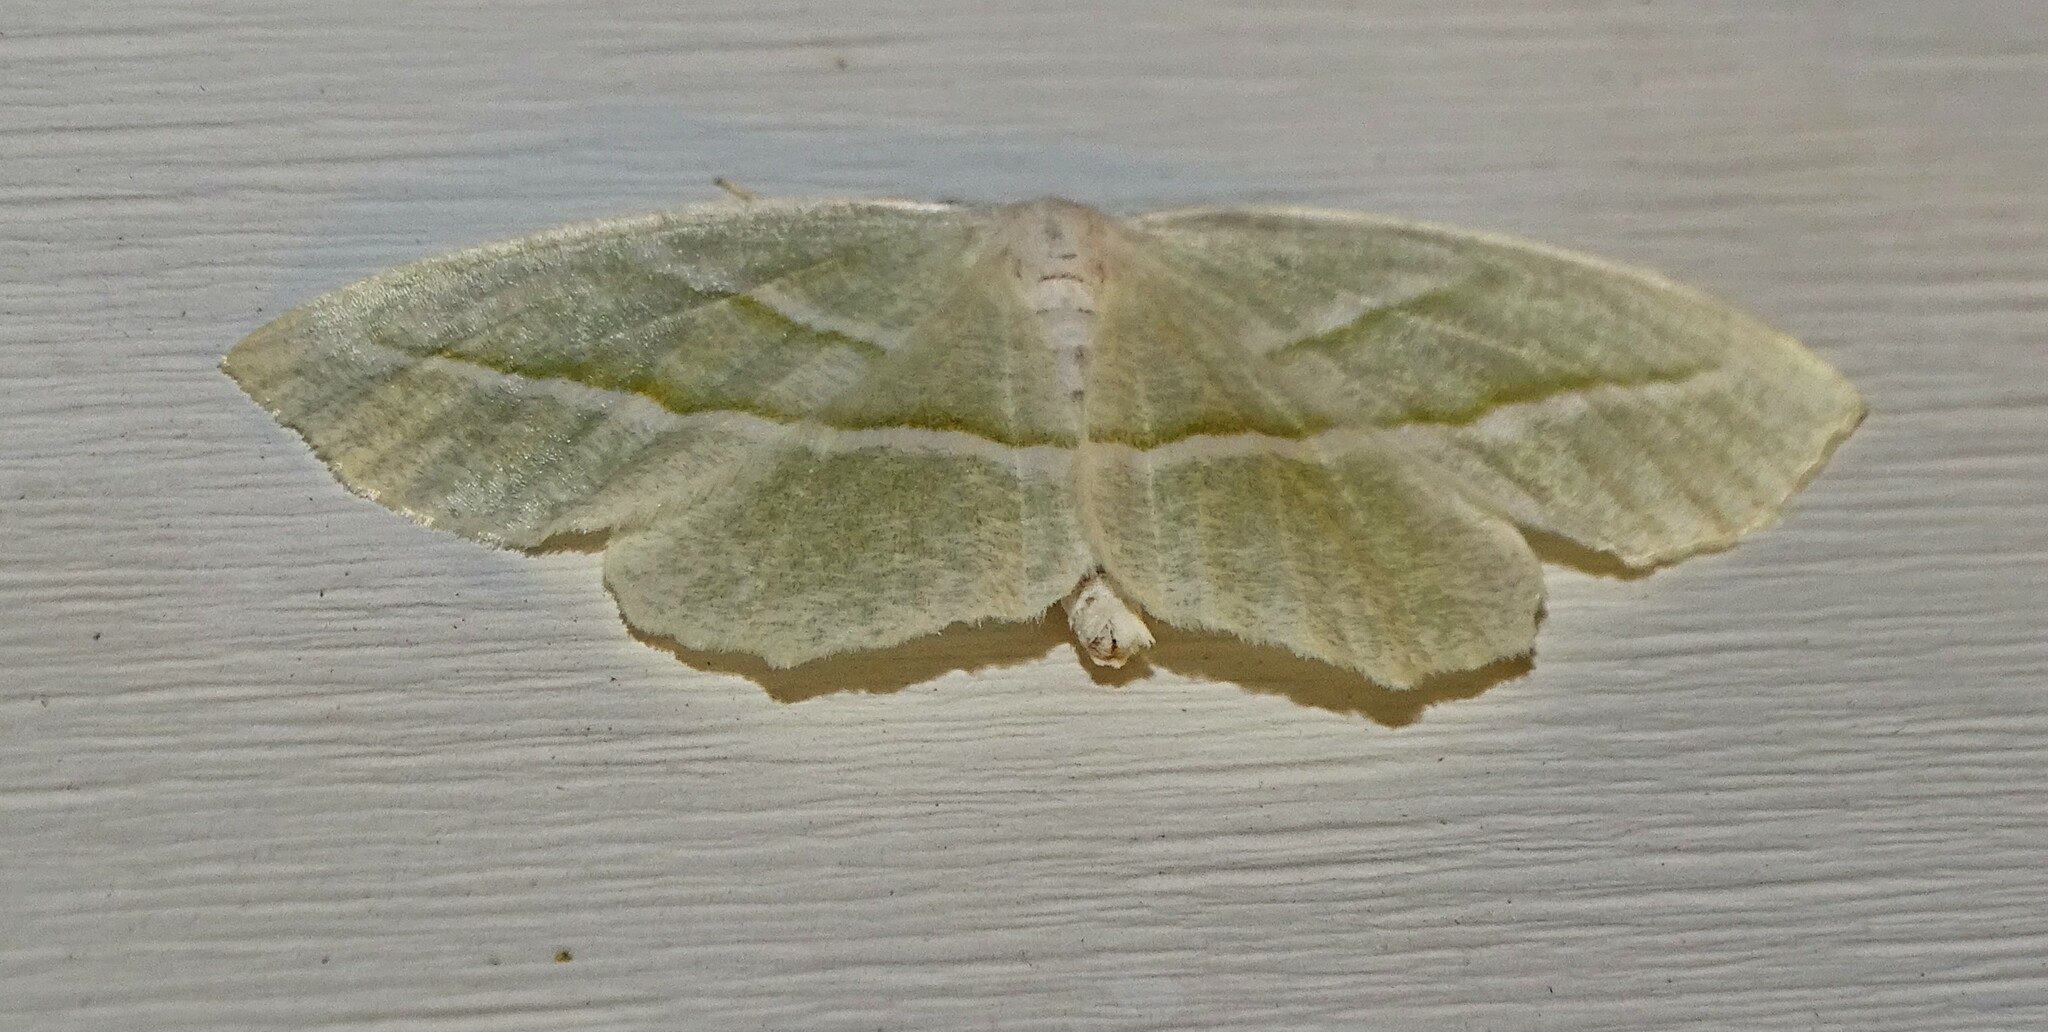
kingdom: Animalia
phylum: Arthropoda
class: Insecta
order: Lepidoptera
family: Geometridae
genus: Campaea
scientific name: Campaea perlata
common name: Fringed looper
